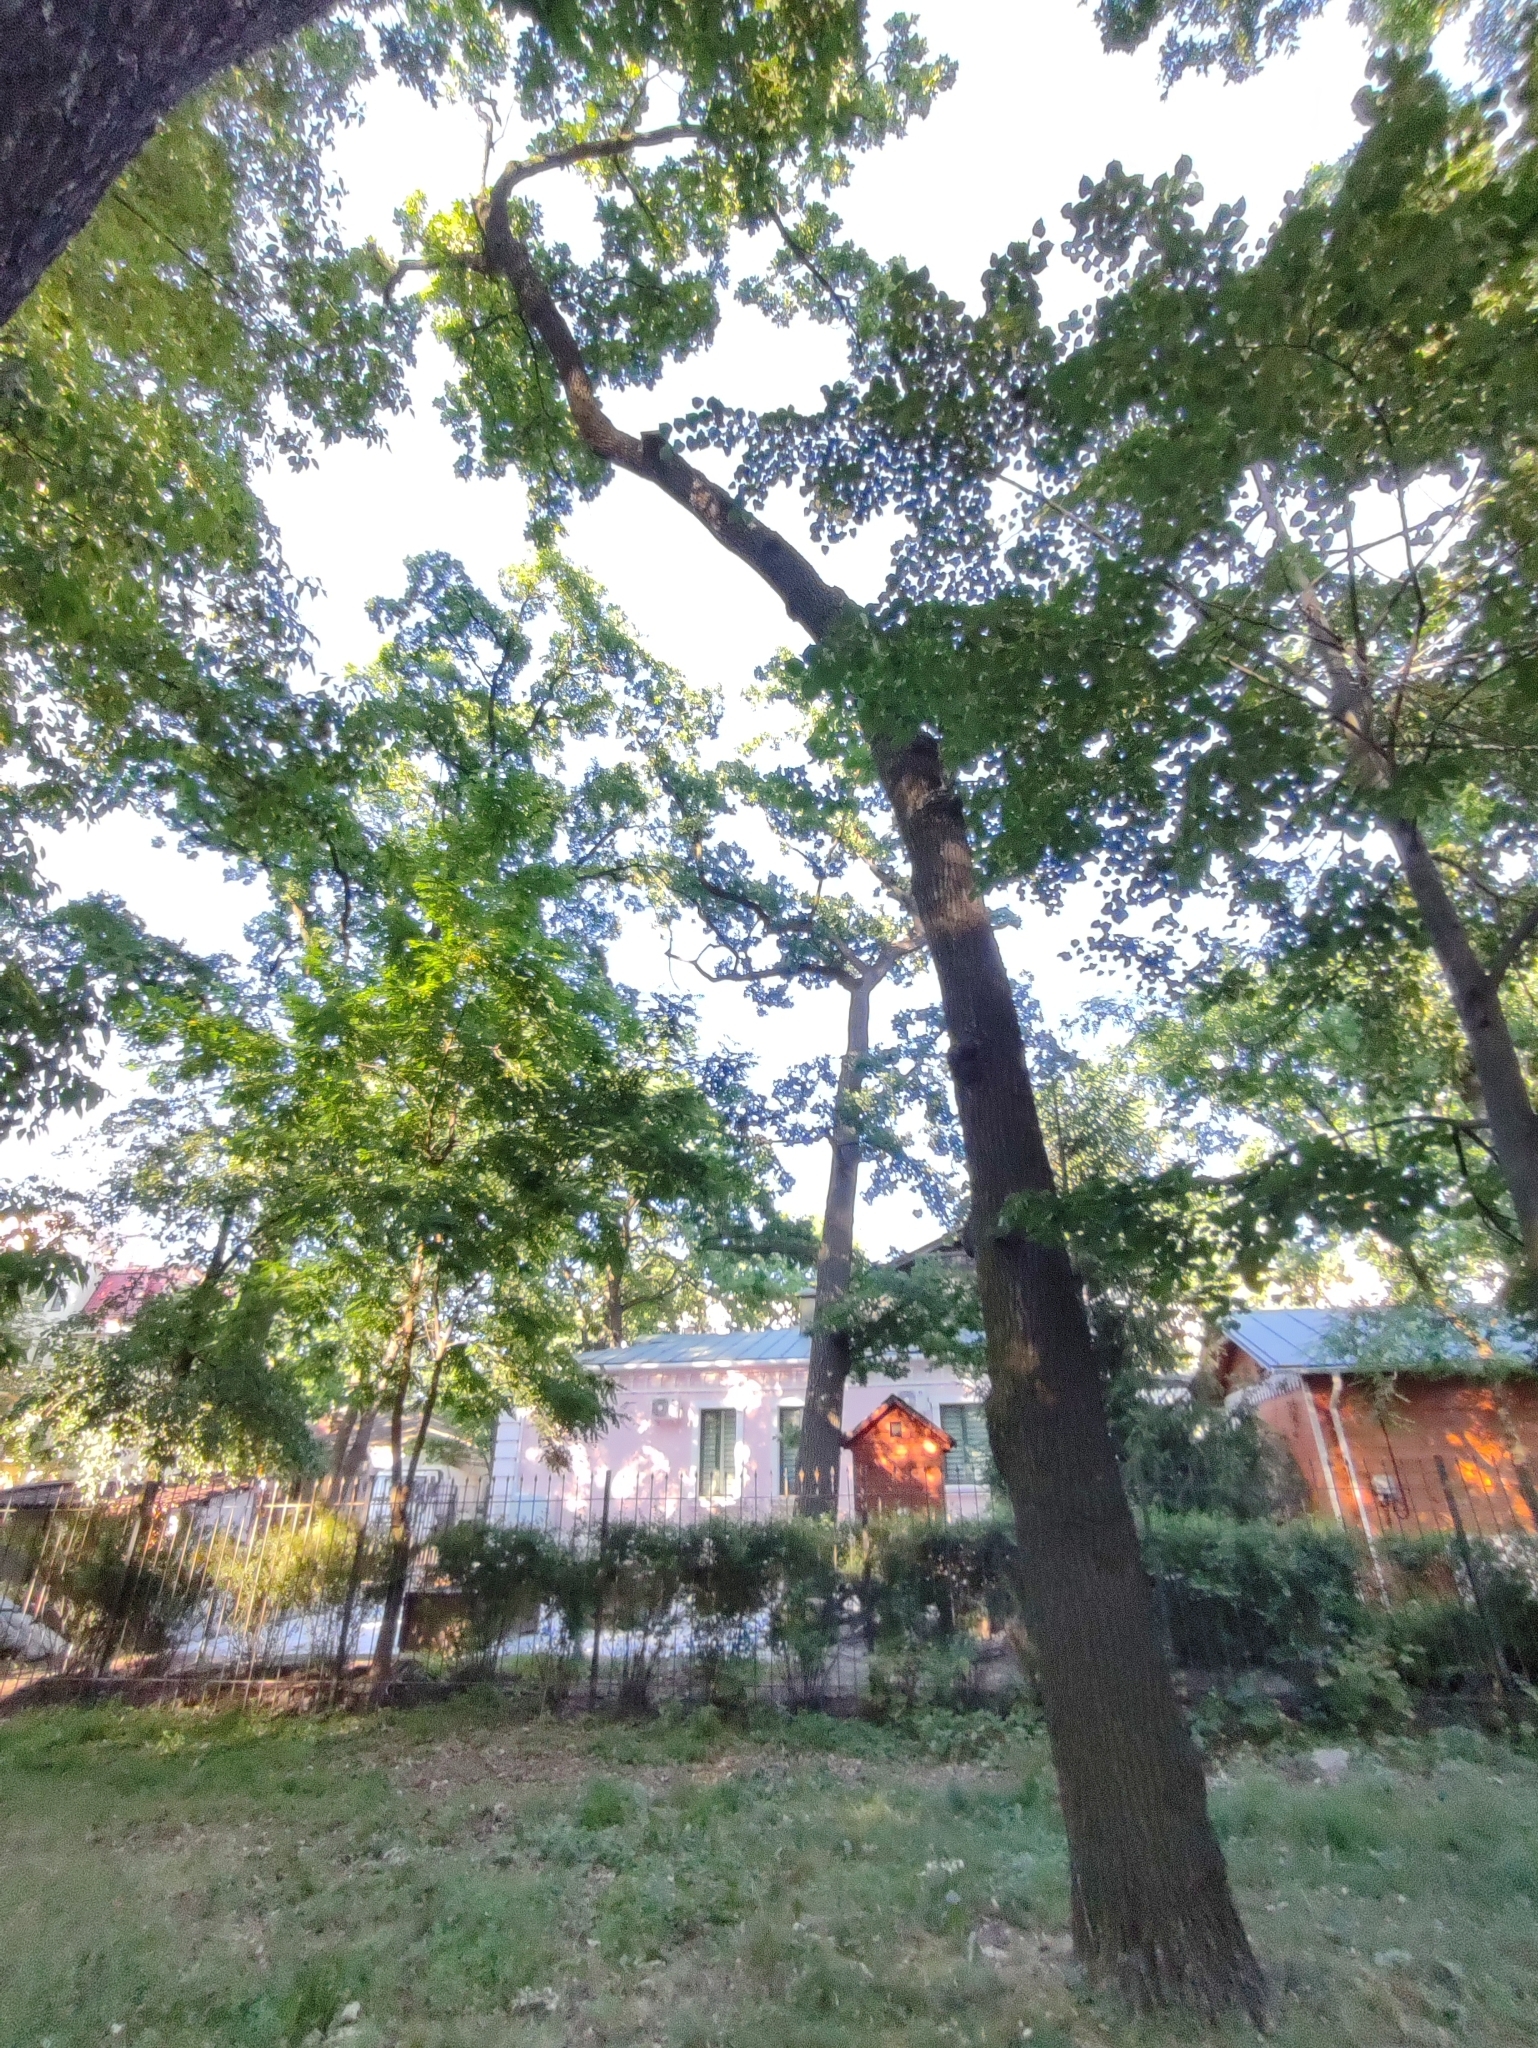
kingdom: Plantae
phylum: Tracheophyta
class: Magnoliopsida
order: Fagales
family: Fagaceae
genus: Quercus
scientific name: Quercus robur
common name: Pedunculate oak
